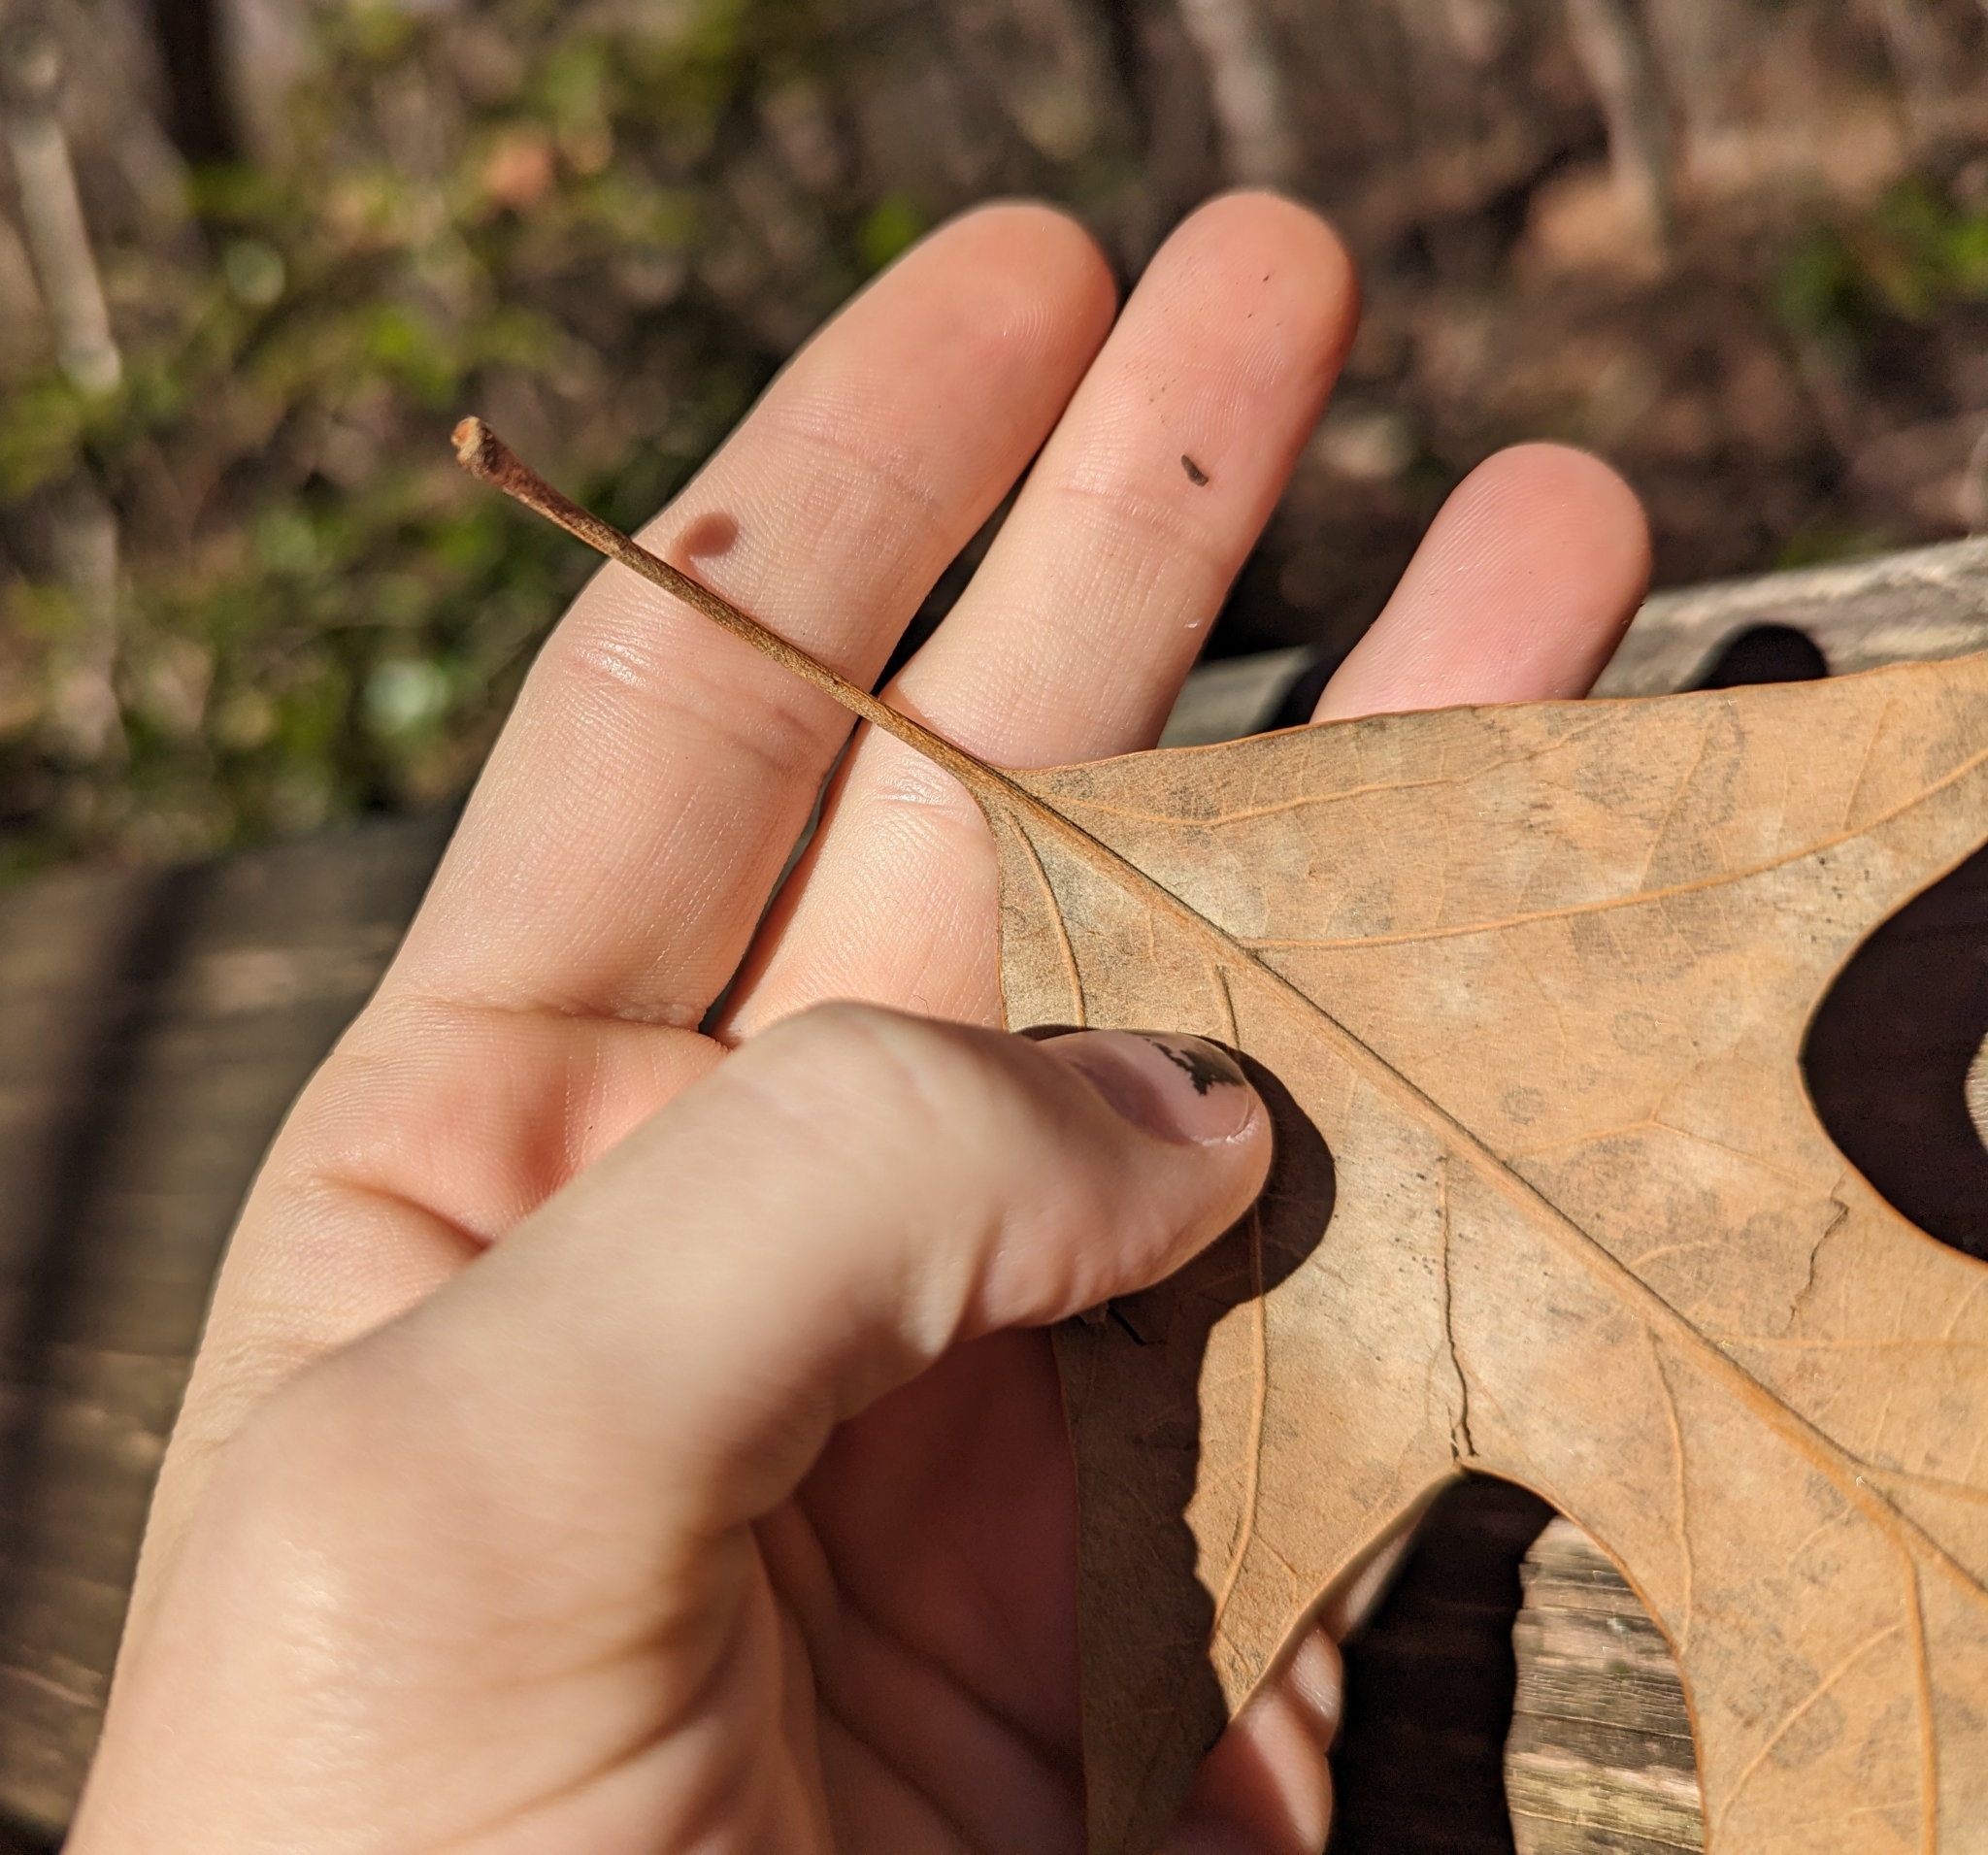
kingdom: Plantae
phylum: Tracheophyta
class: Magnoliopsida
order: Fagales
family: Fagaceae
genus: Quercus
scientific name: Quercus falcata
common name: Southern red oak
